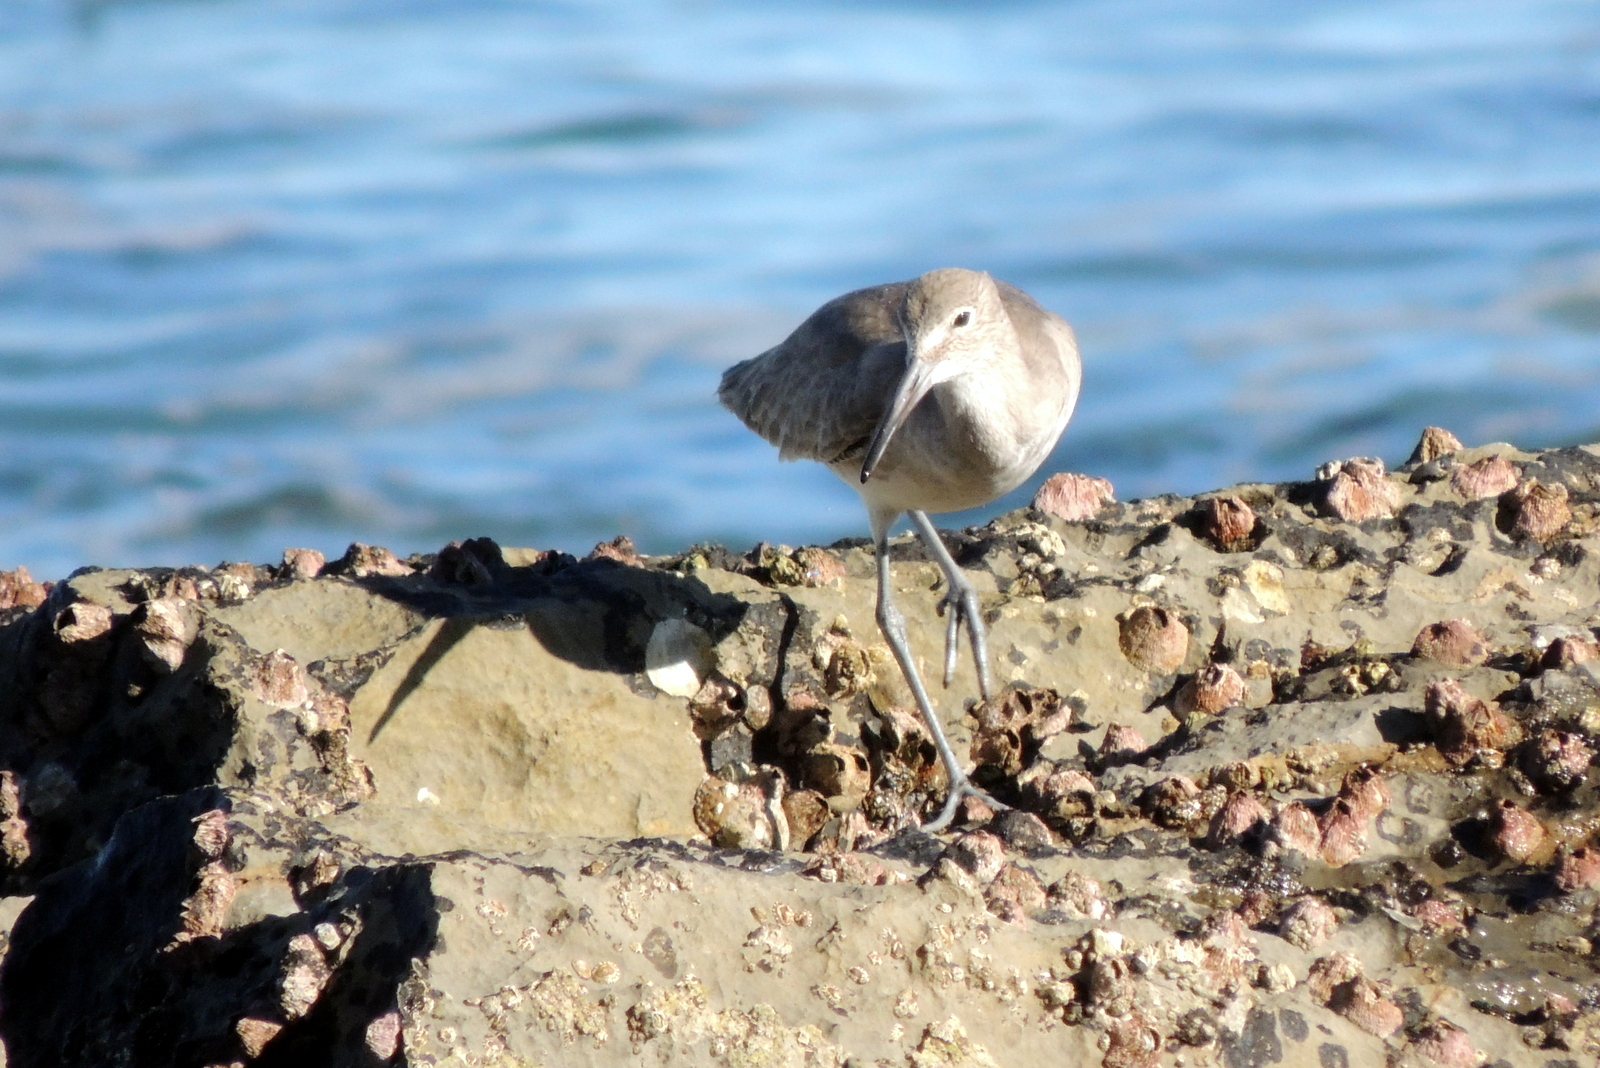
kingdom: Animalia
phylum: Chordata
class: Aves
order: Charadriiformes
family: Scolopacidae
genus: Tringa
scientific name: Tringa semipalmata
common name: Willet
